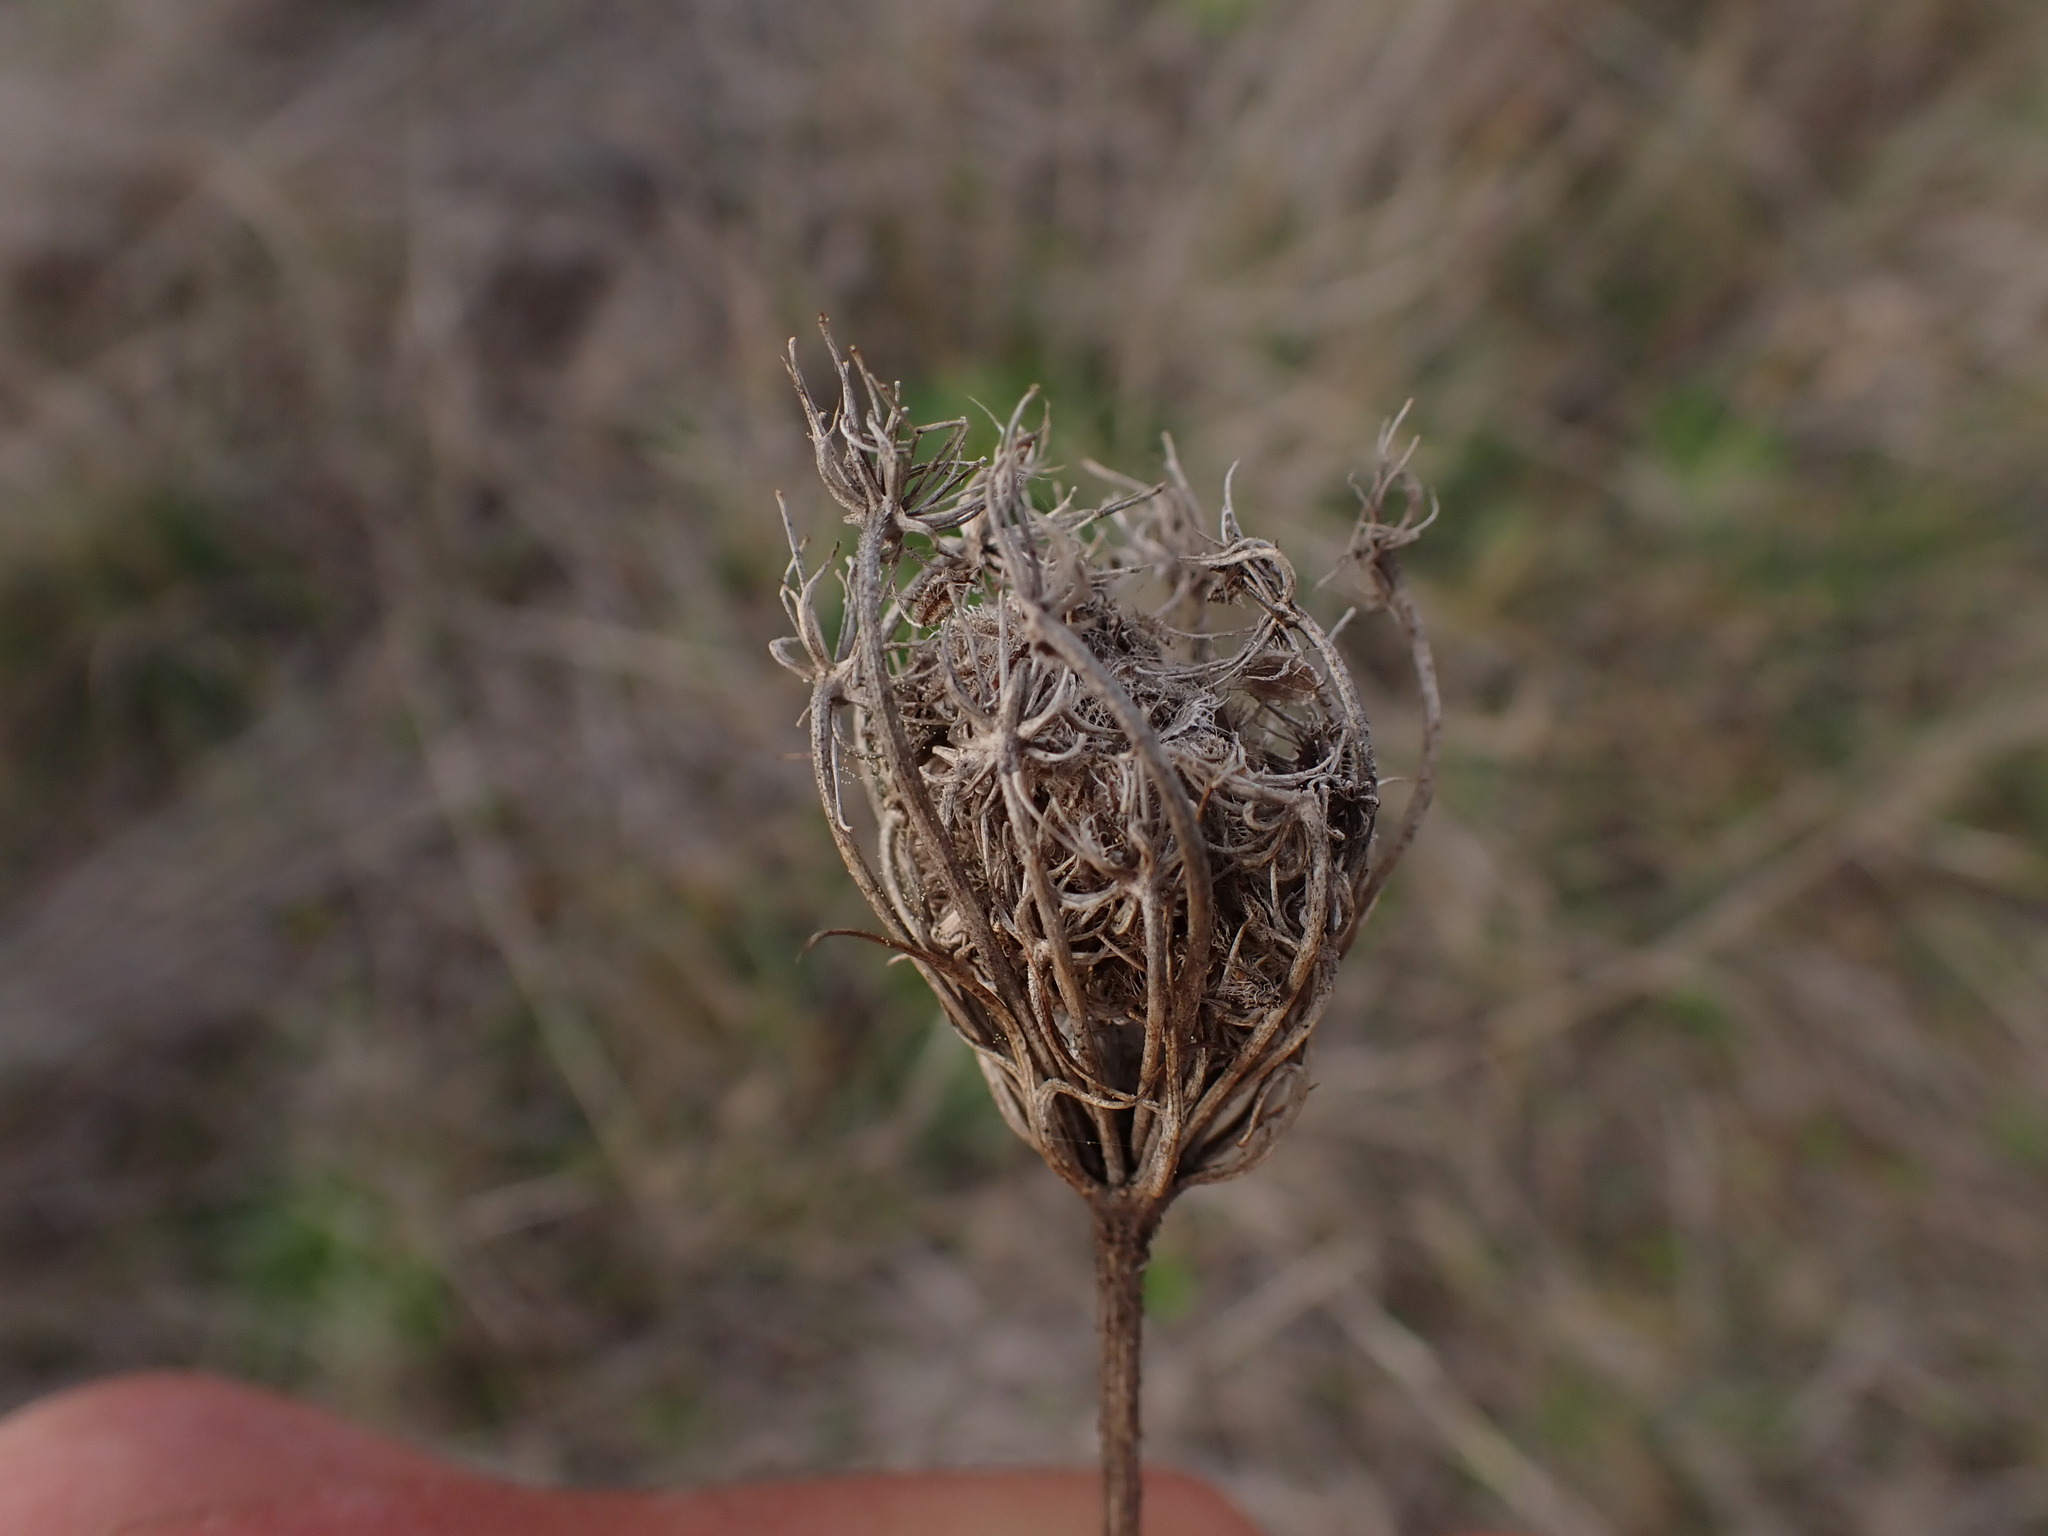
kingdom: Plantae
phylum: Tracheophyta
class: Magnoliopsida
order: Apiales
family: Apiaceae
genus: Daucus
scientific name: Daucus carota
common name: Wild carrot
